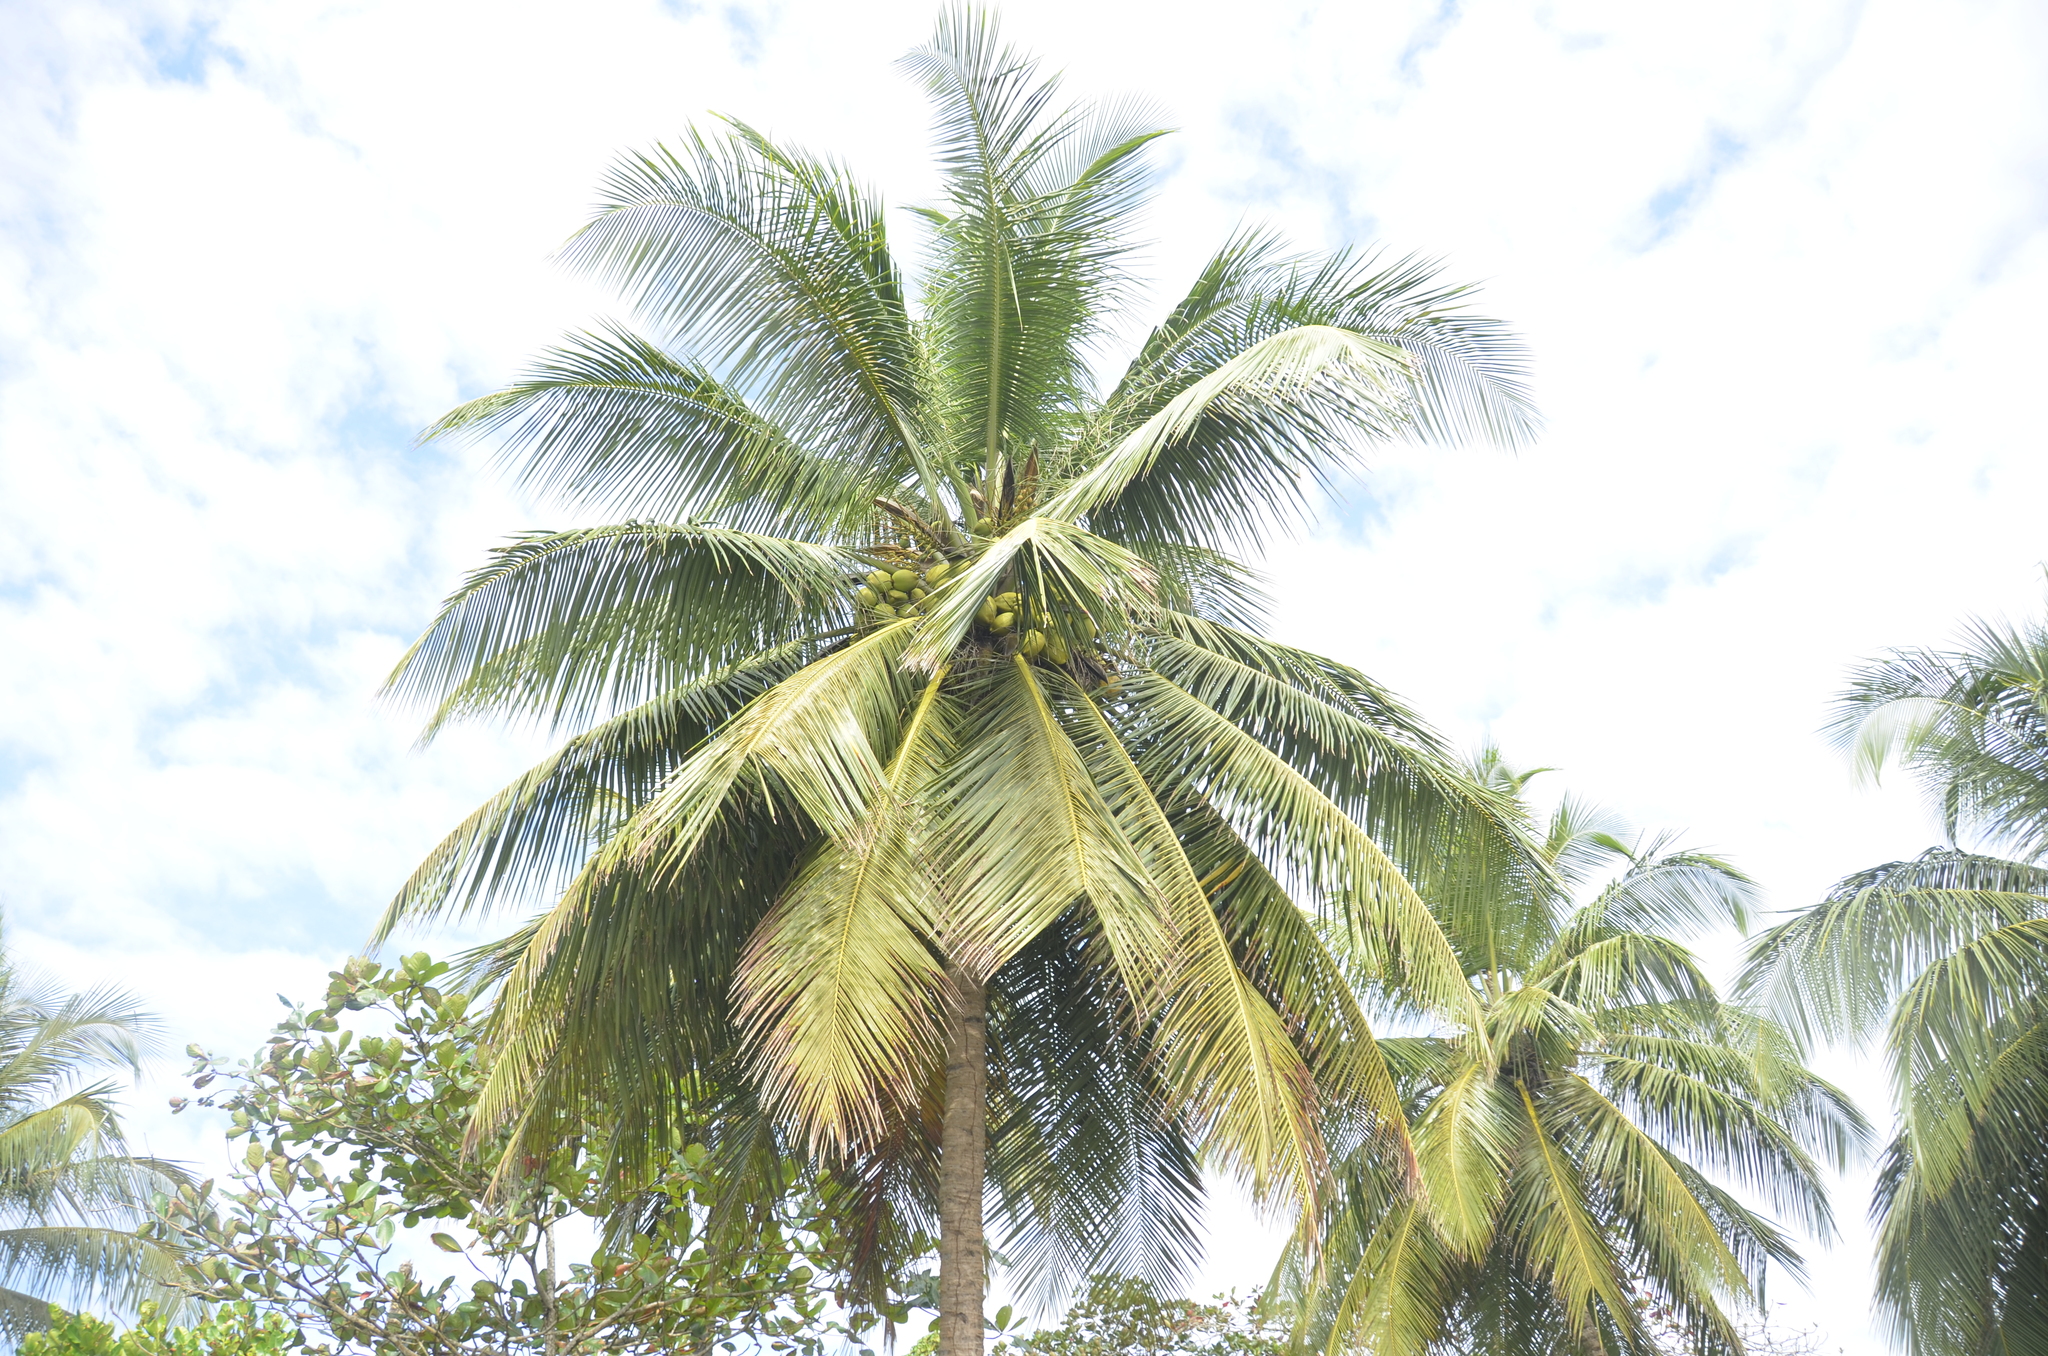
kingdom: Plantae
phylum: Tracheophyta
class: Liliopsida
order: Arecales
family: Arecaceae
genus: Cocos
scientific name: Cocos nucifera
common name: Coconut palm
